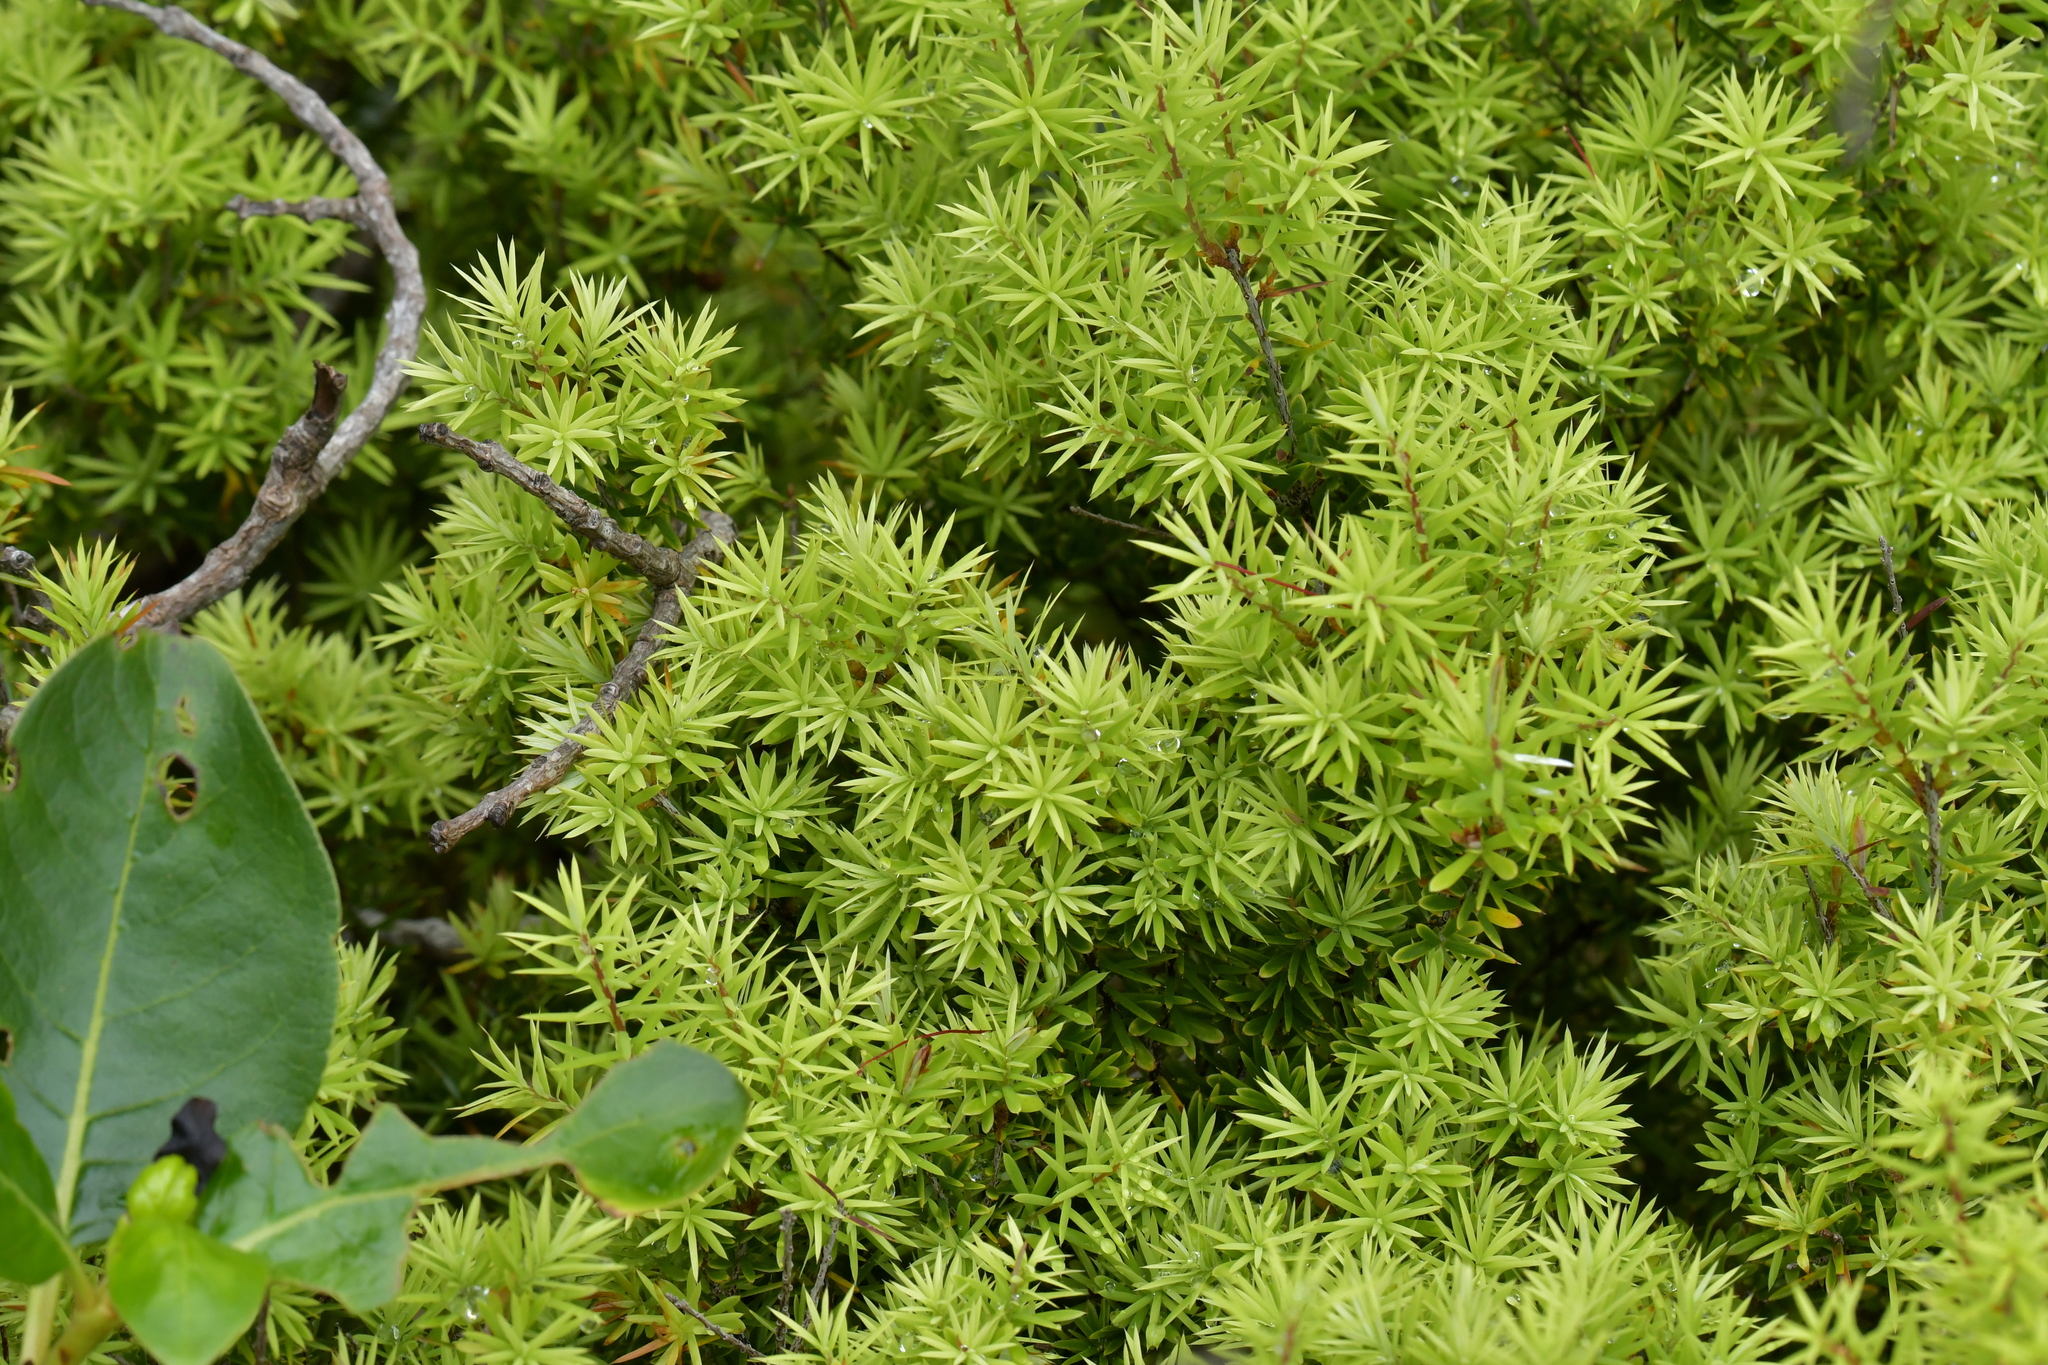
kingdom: Plantae
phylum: Tracheophyta
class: Magnoliopsida
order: Ericales
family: Ericaceae
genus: Leptecophylla
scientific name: Leptecophylla juniperina
